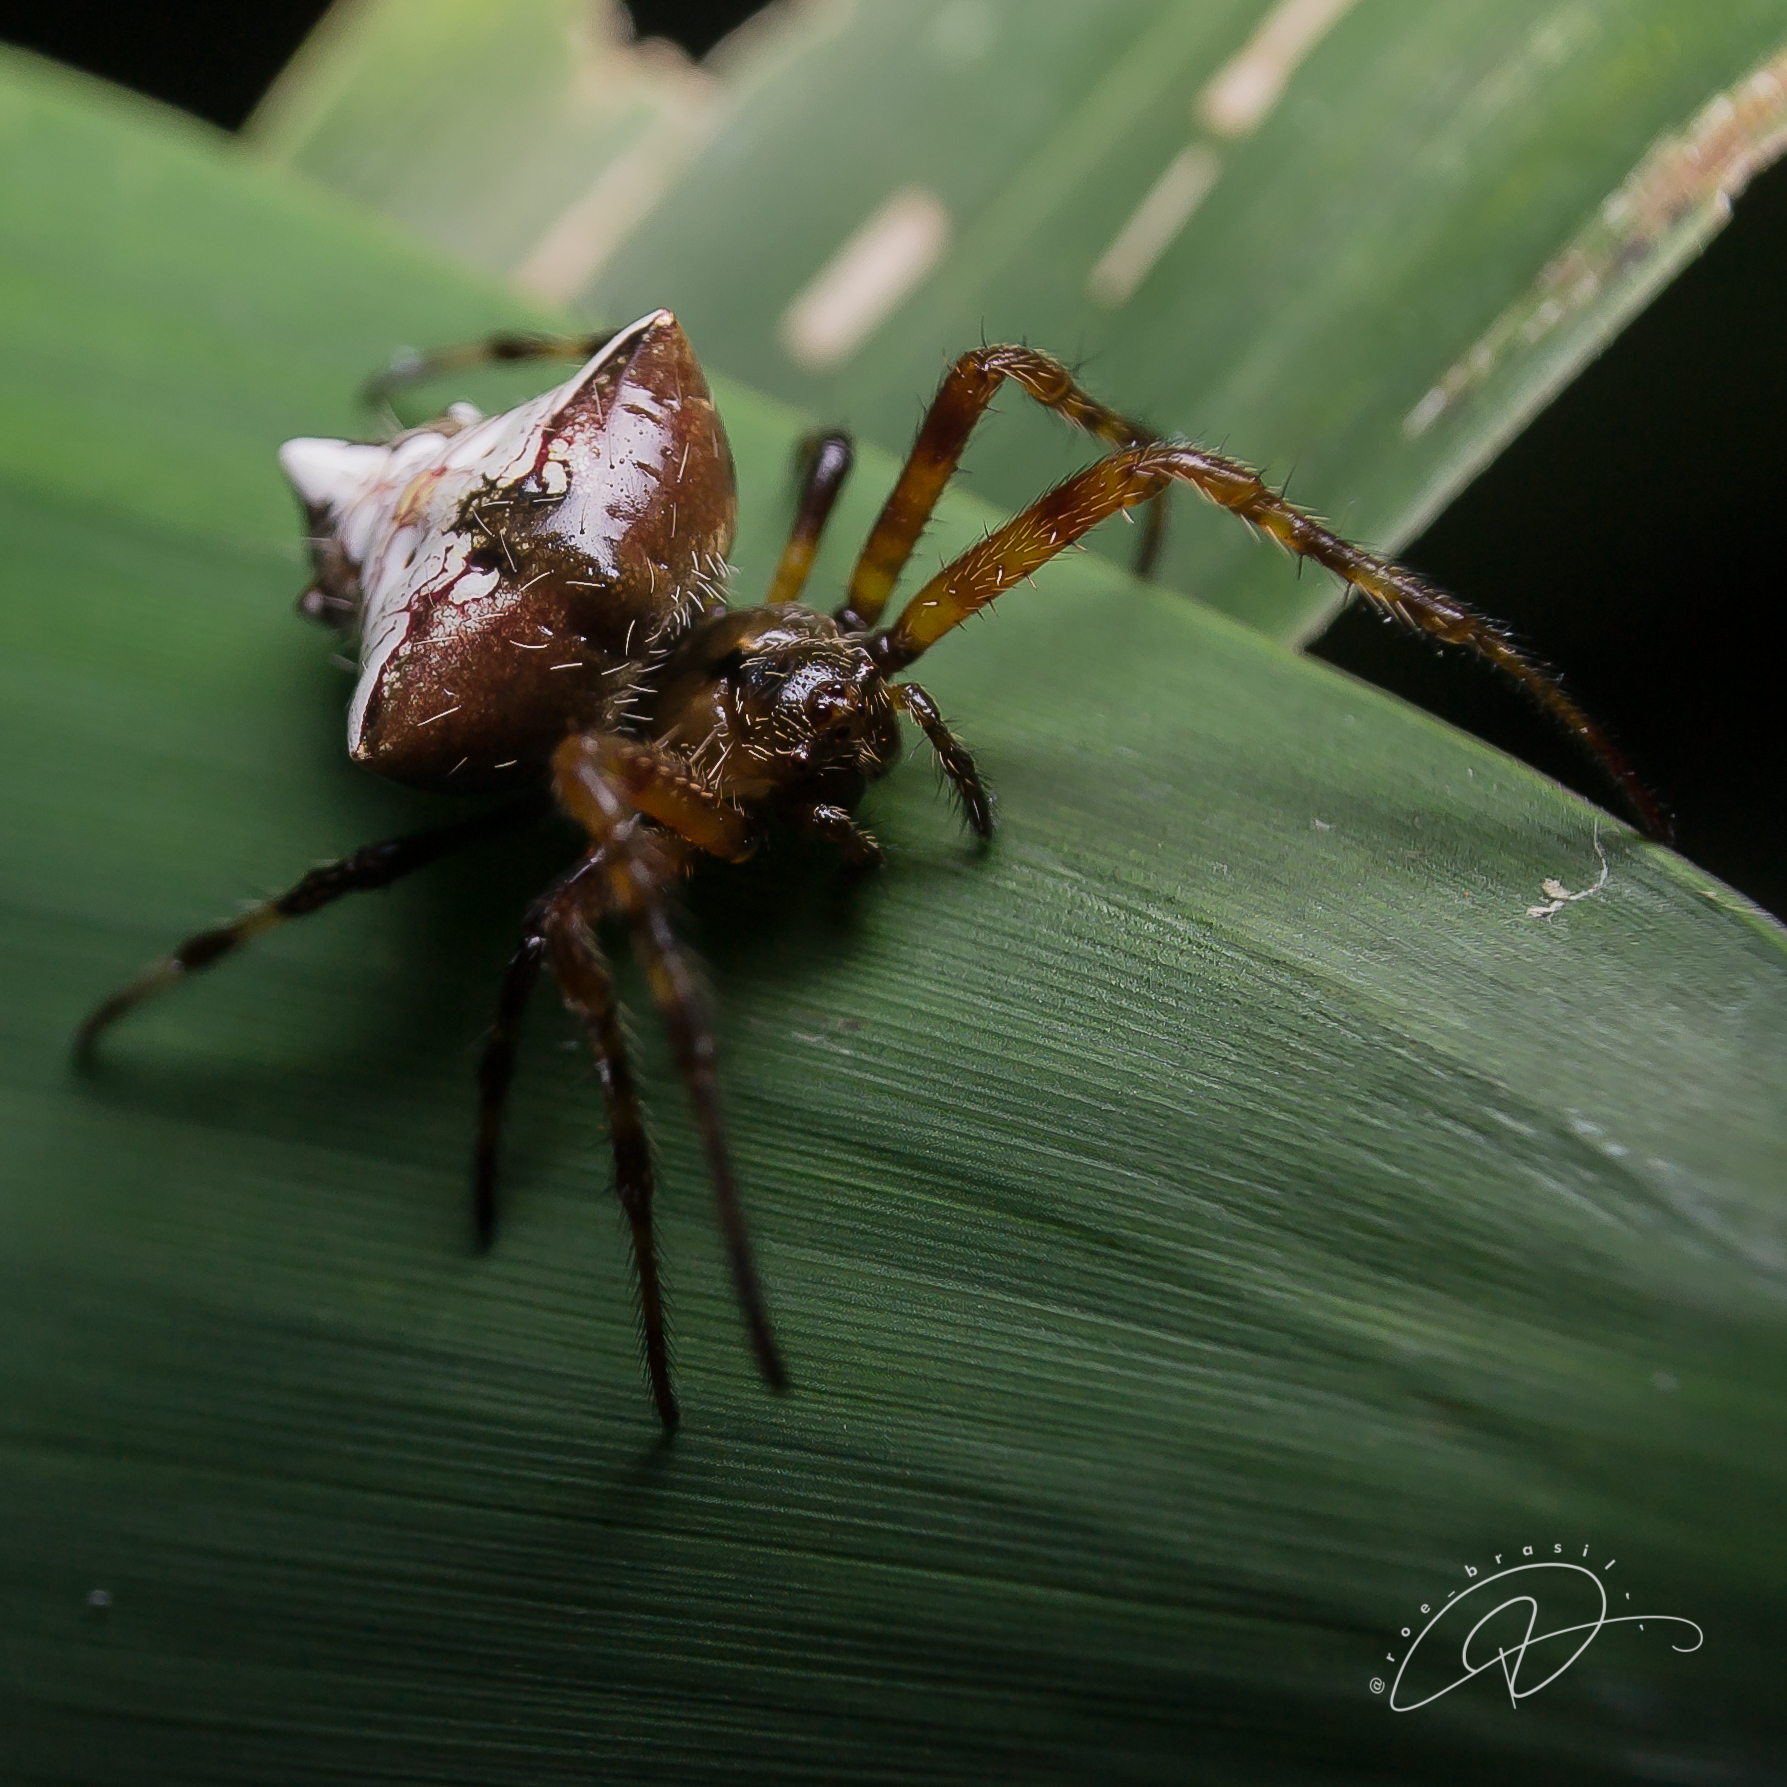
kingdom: Animalia
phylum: Arthropoda
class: Arachnida
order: Araneae
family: Araneidae
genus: Verrucosa
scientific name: Verrucosa scapofracta
